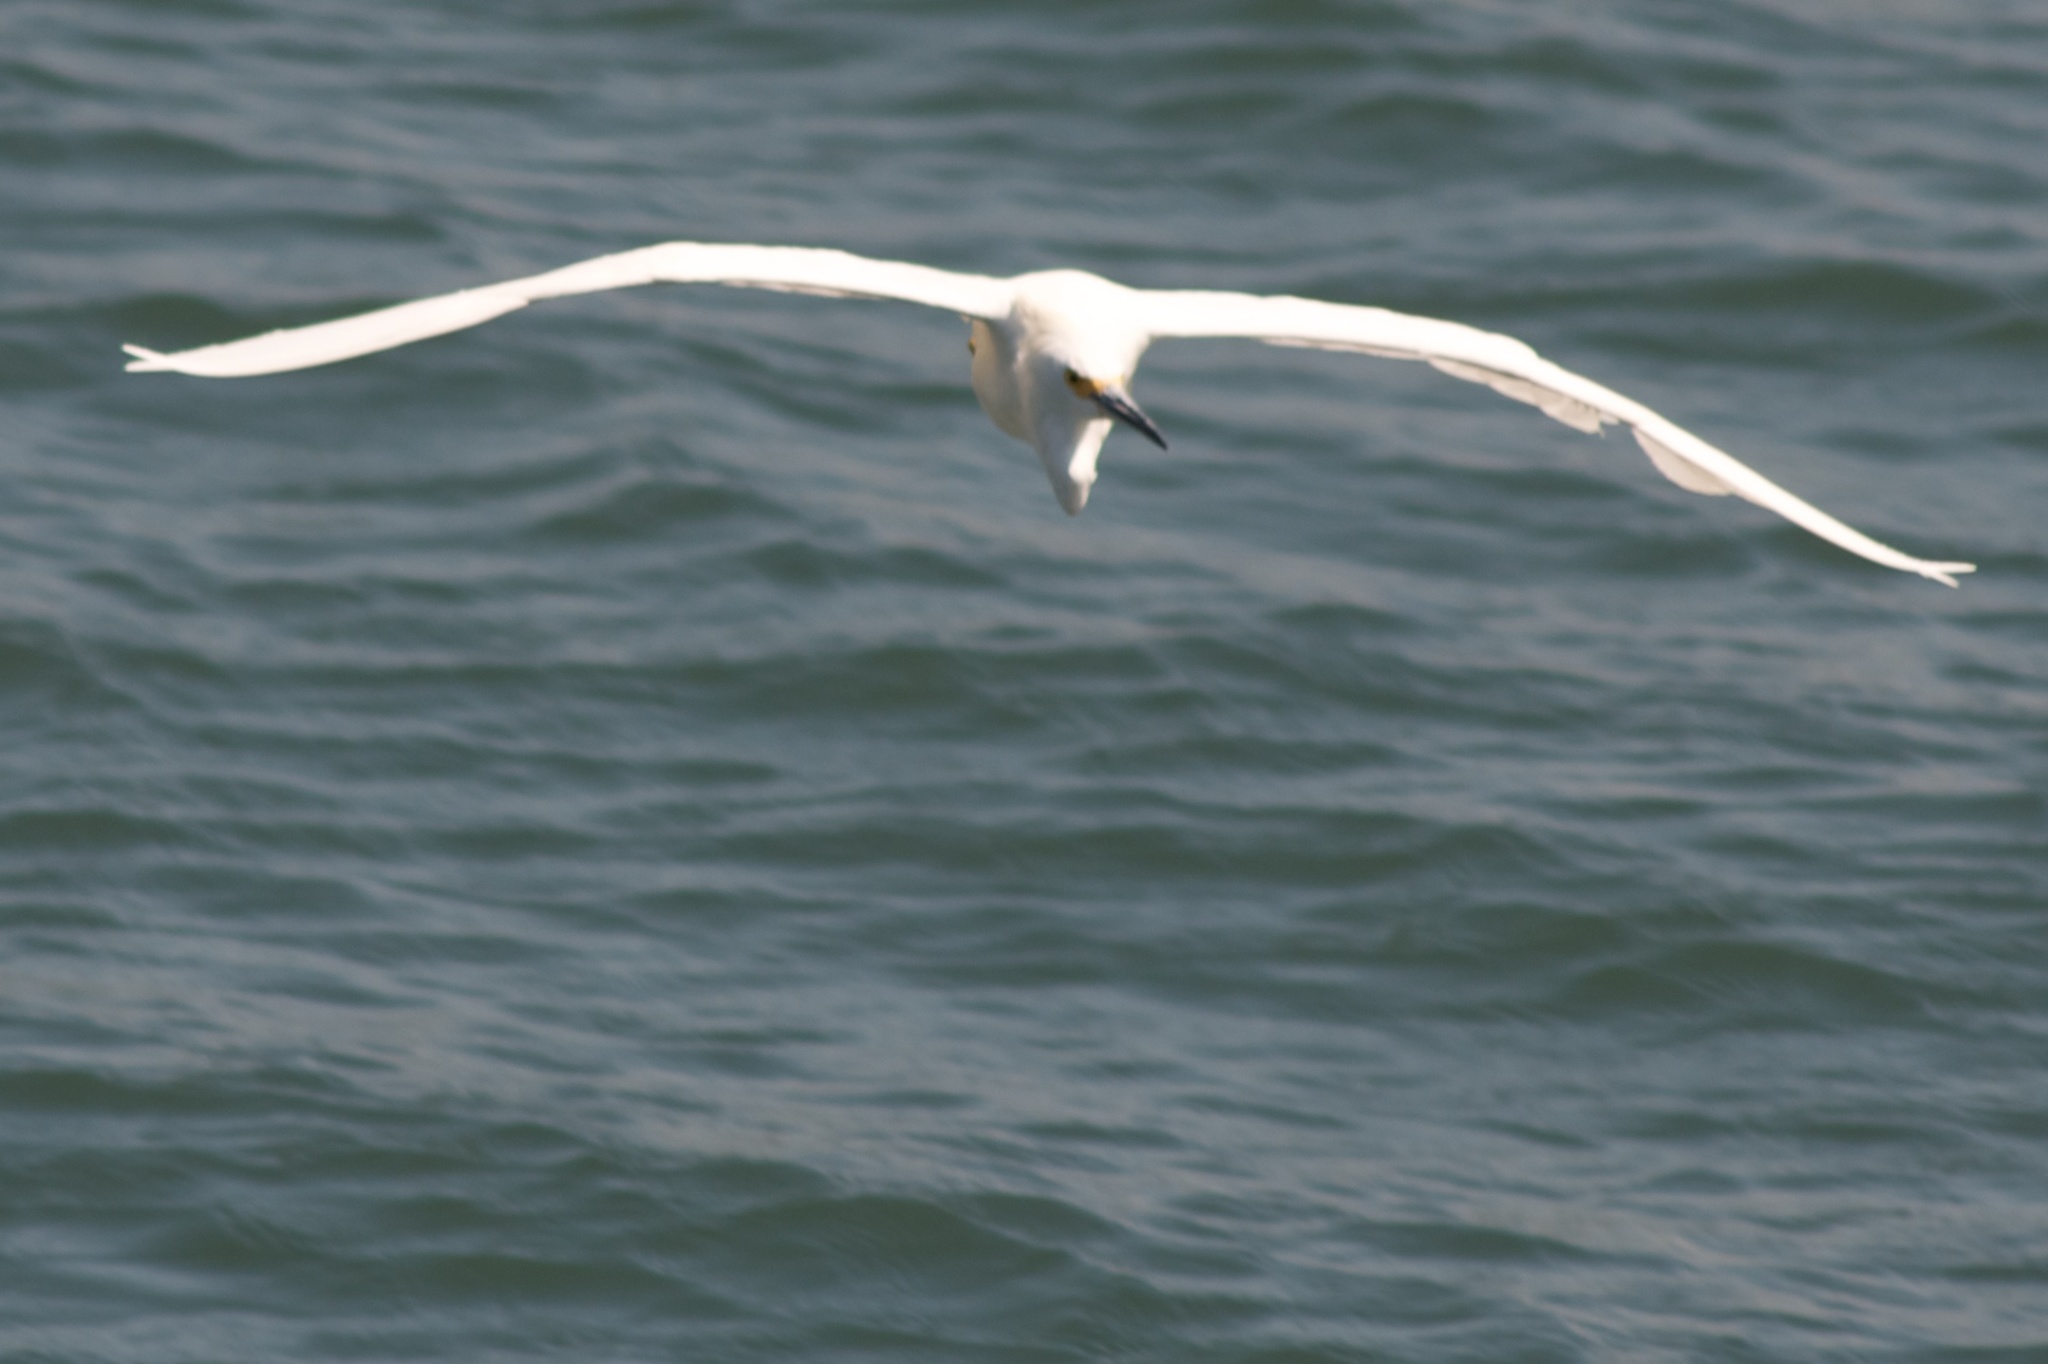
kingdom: Animalia
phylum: Chordata
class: Aves
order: Pelecaniformes
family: Ardeidae
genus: Egretta
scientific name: Egretta thula
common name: Snowy egret
